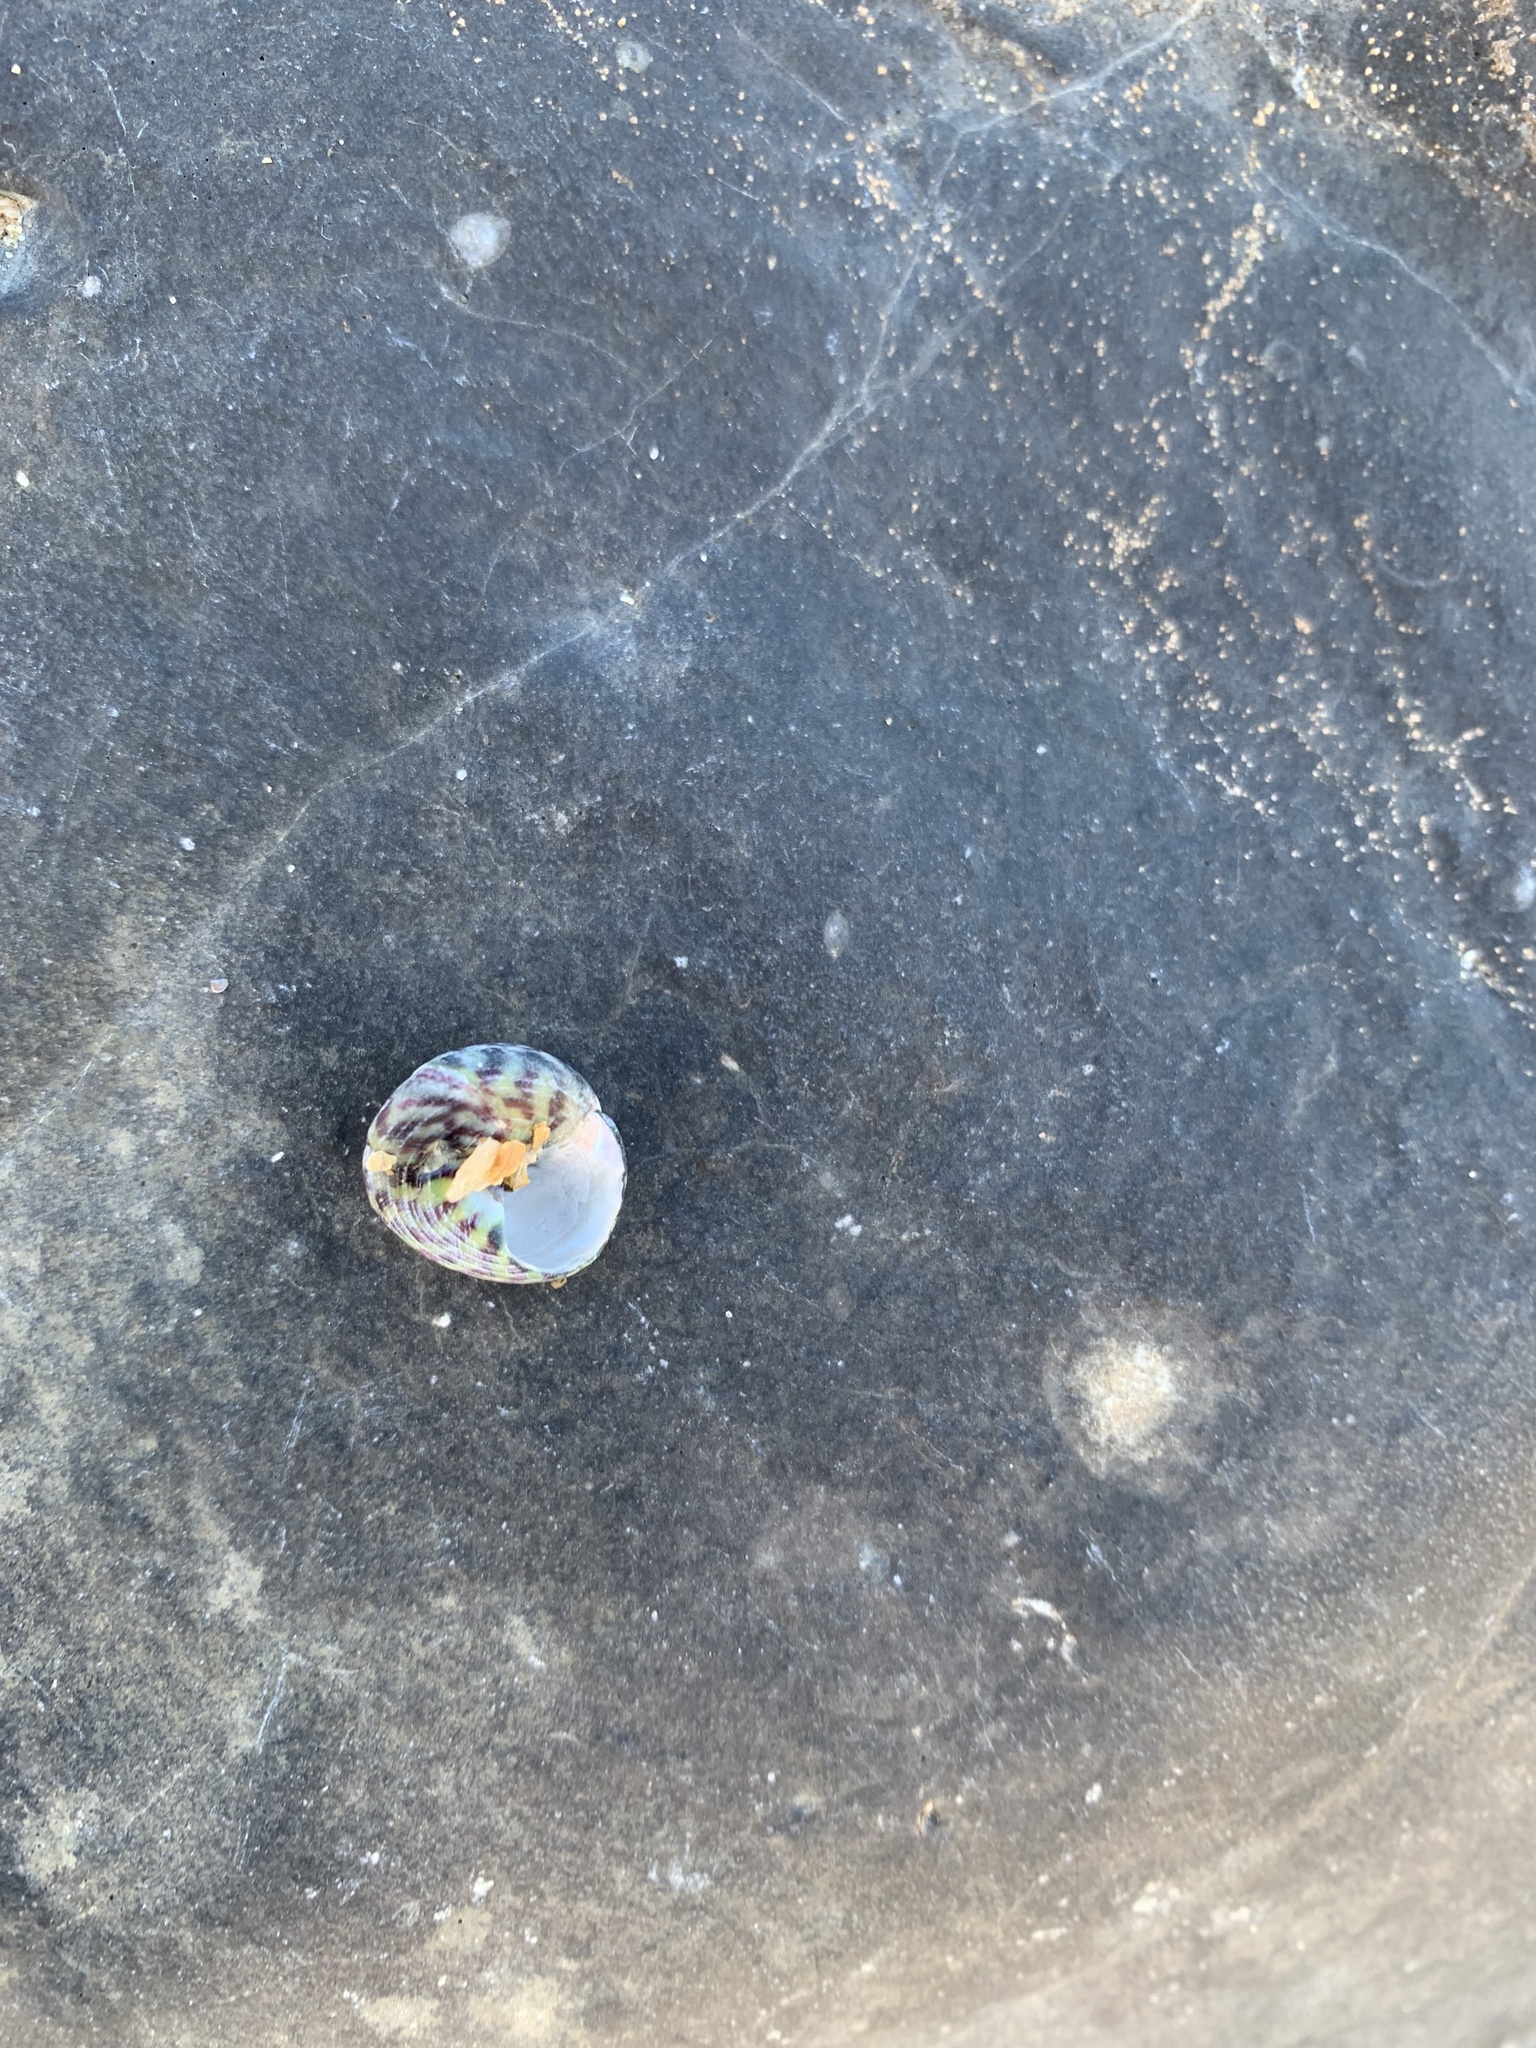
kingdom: Animalia
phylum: Mollusca
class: Gastropoda
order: Trochida
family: Trochidae
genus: Steromphala
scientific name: Steromphala umbilicalis
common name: Flat top shell
